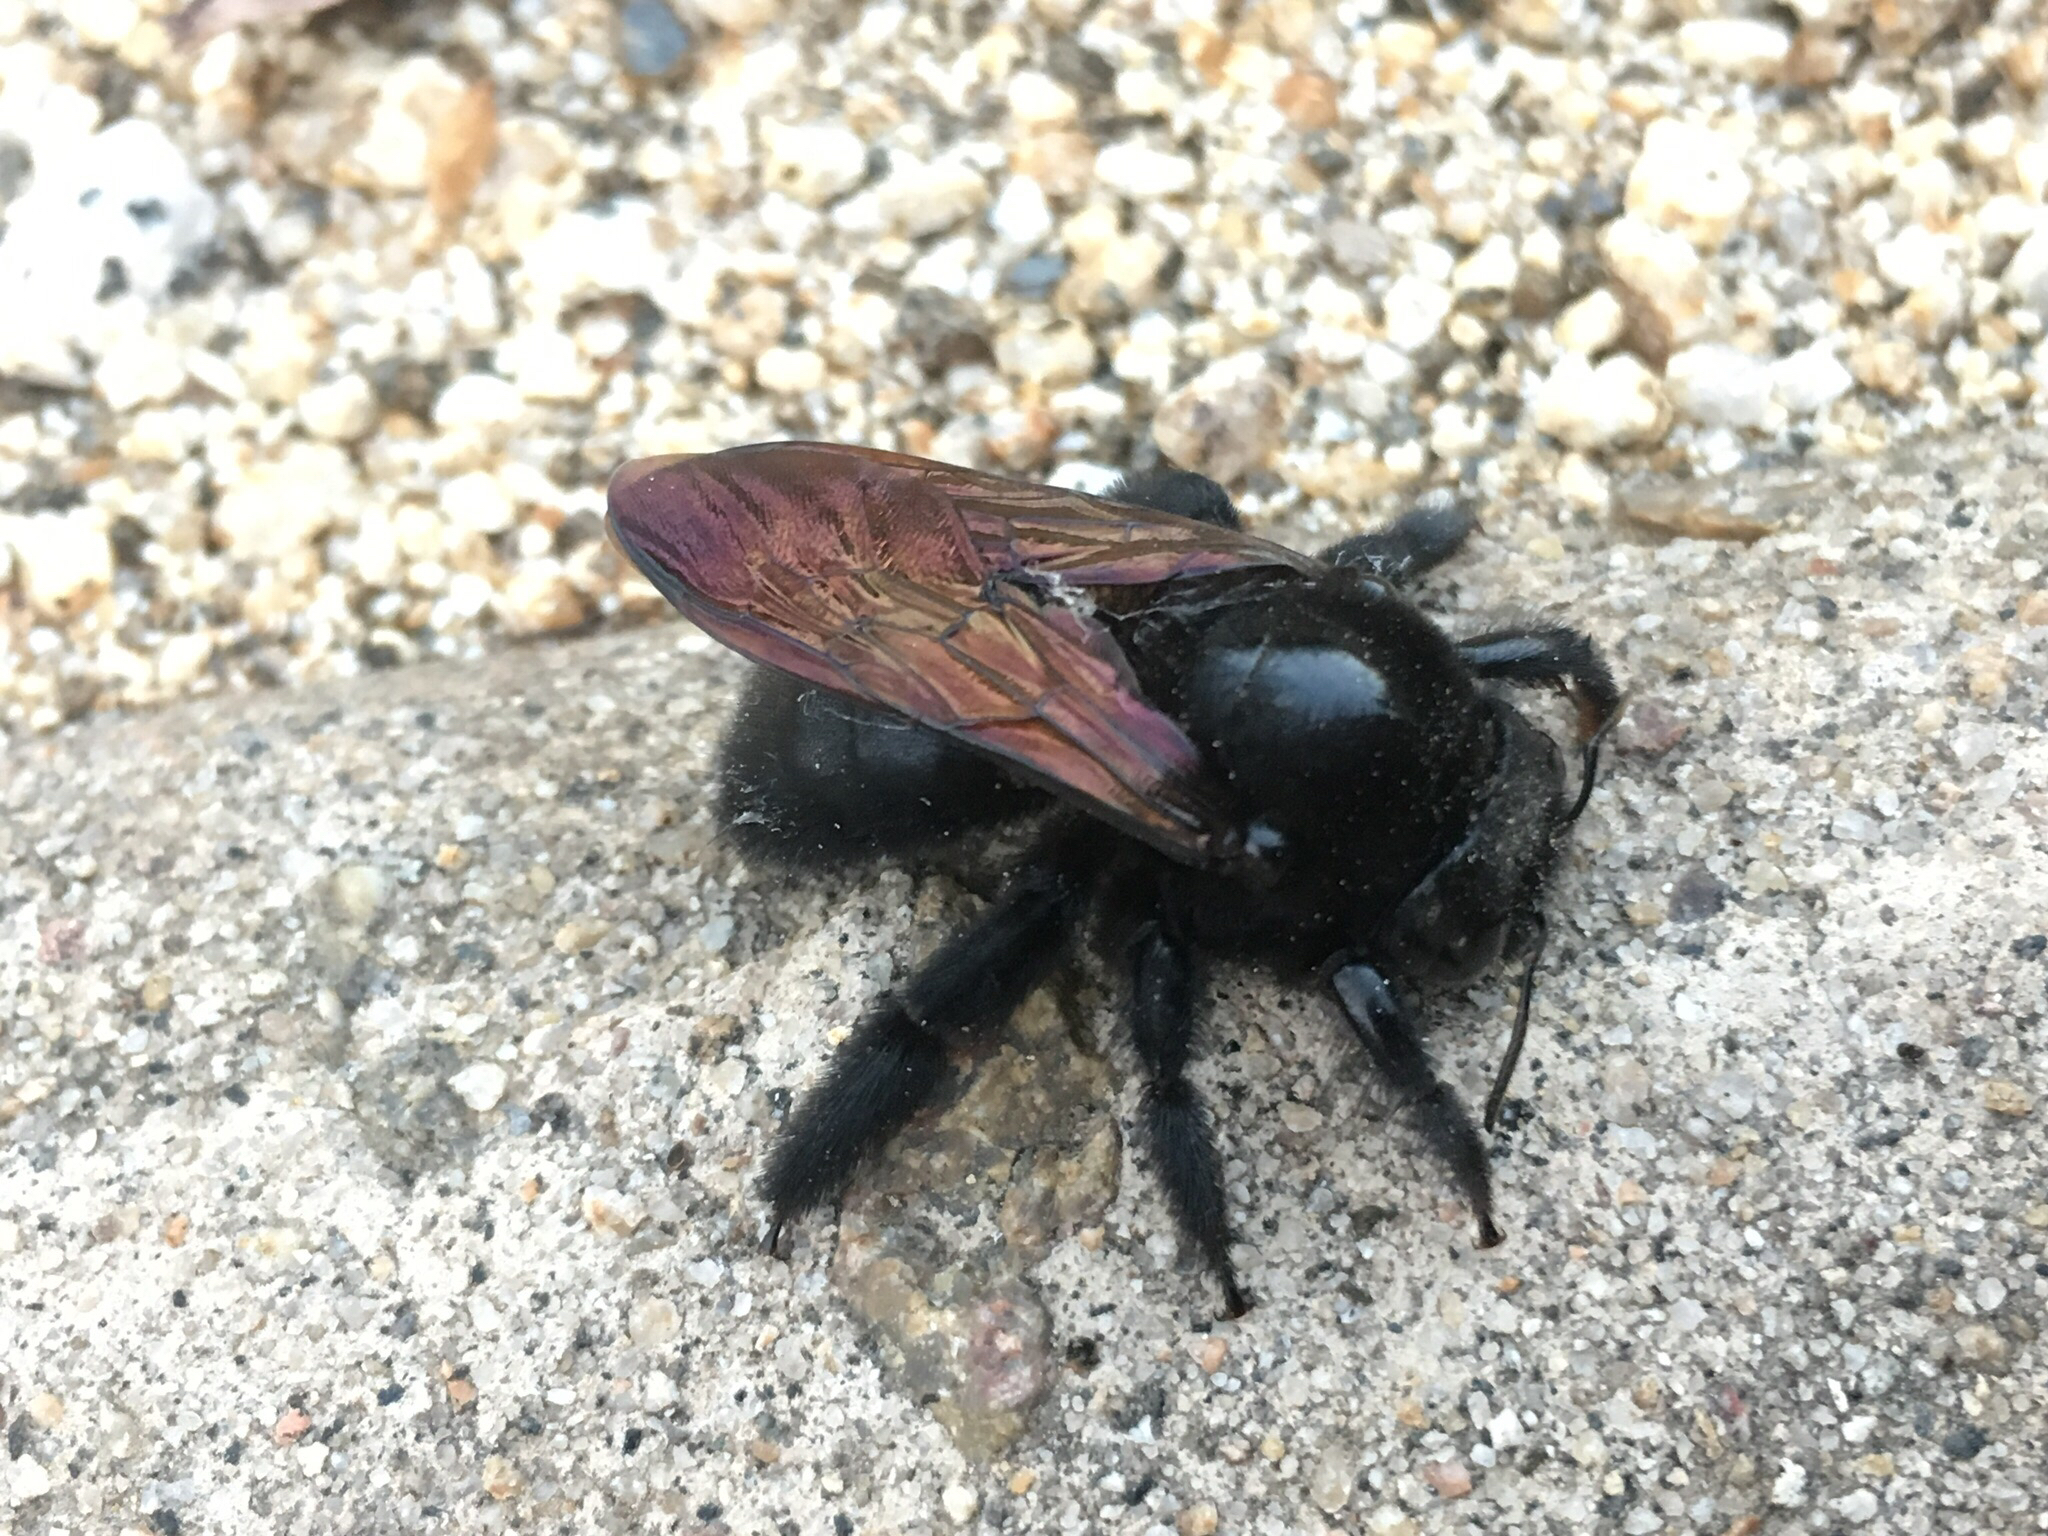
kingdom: Animalia
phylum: Arthropoda
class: Insecta
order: Hymenoptera
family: Apidae
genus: Xylocopa
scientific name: Xylocopa sonorina
